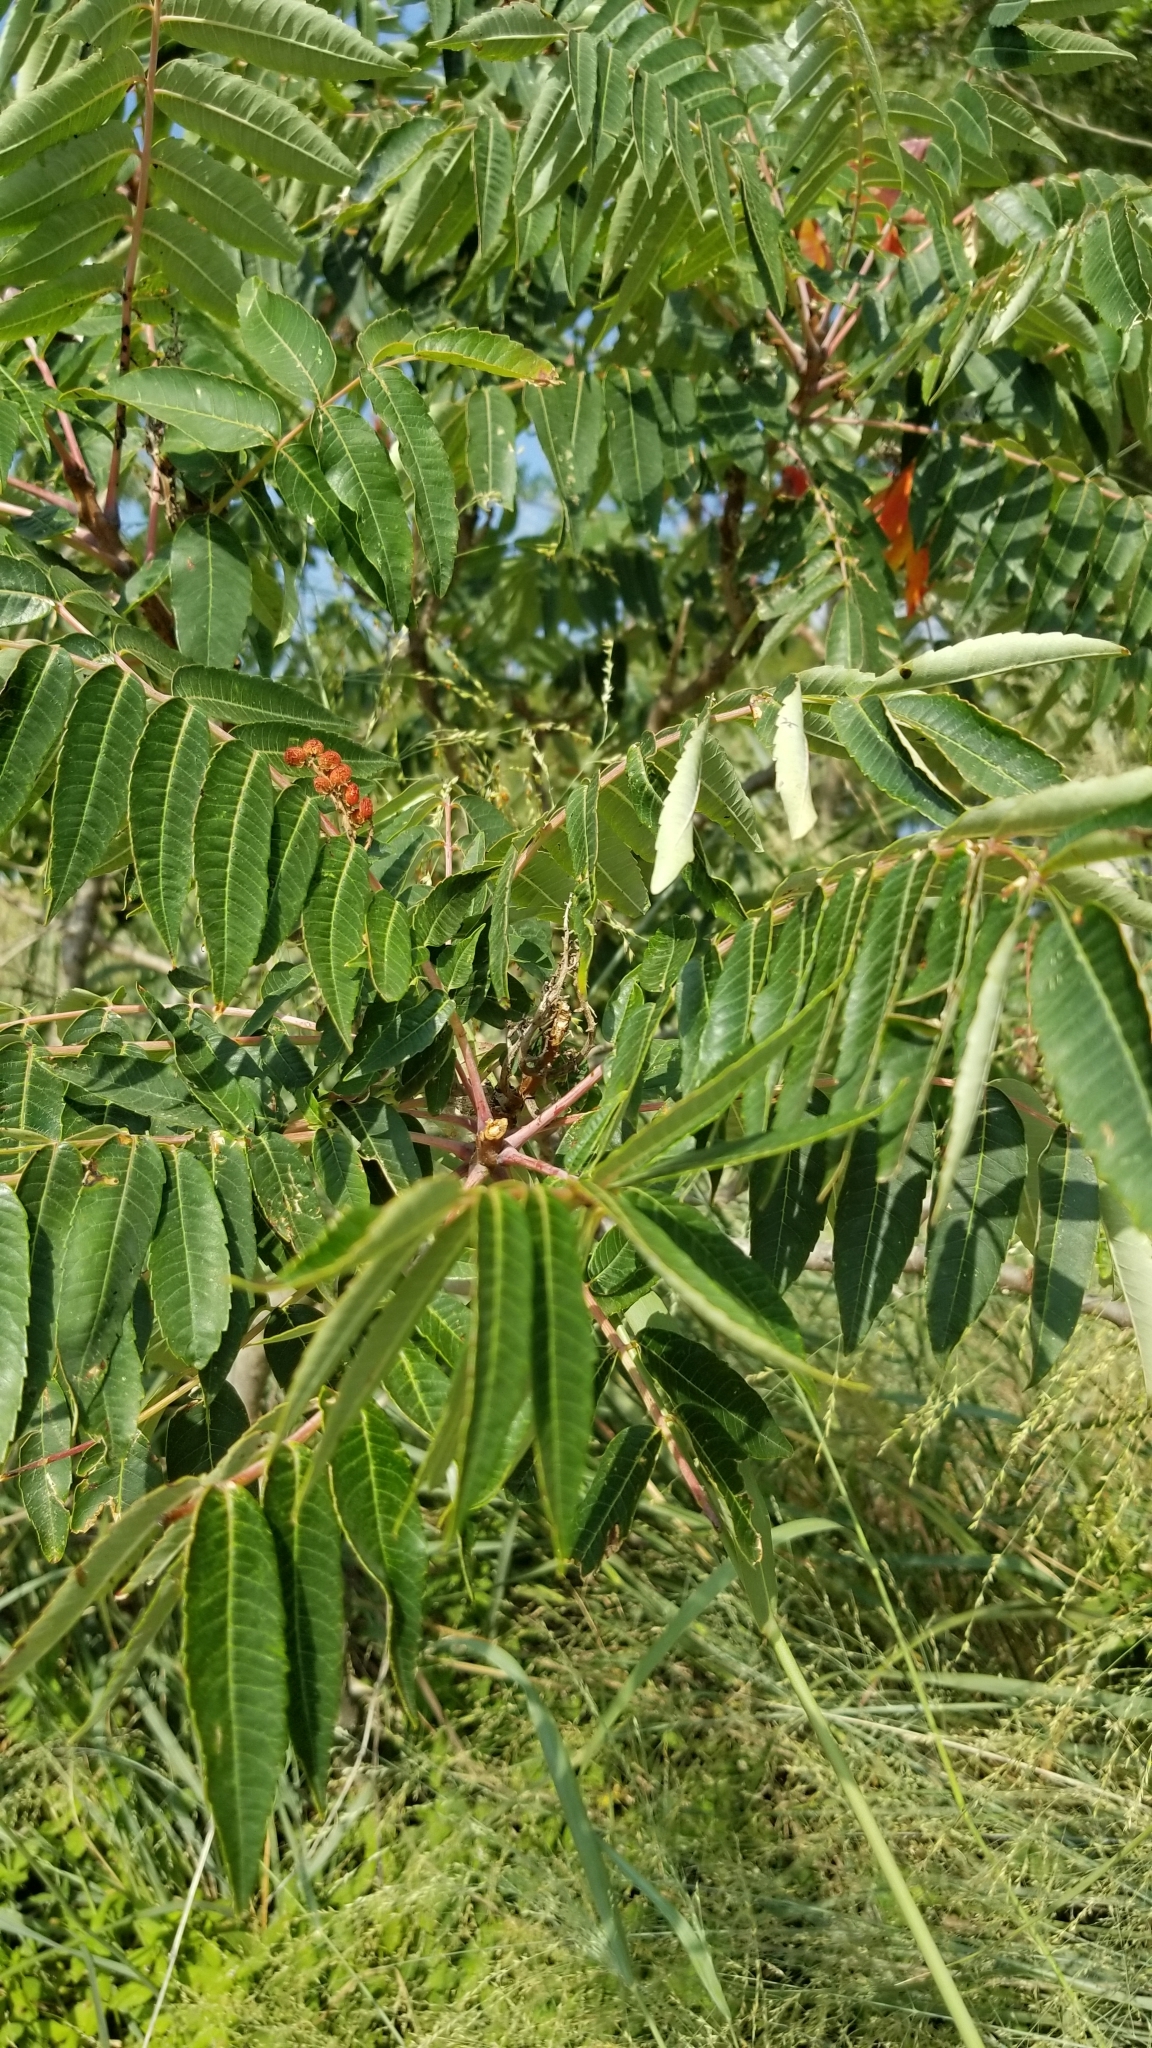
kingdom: Plantae
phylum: Tracheophyta
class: Magnoliopsida
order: Sapindales
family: Anacardiaceae
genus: Rhus
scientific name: Rhus glabra
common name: Scarlet sumac
